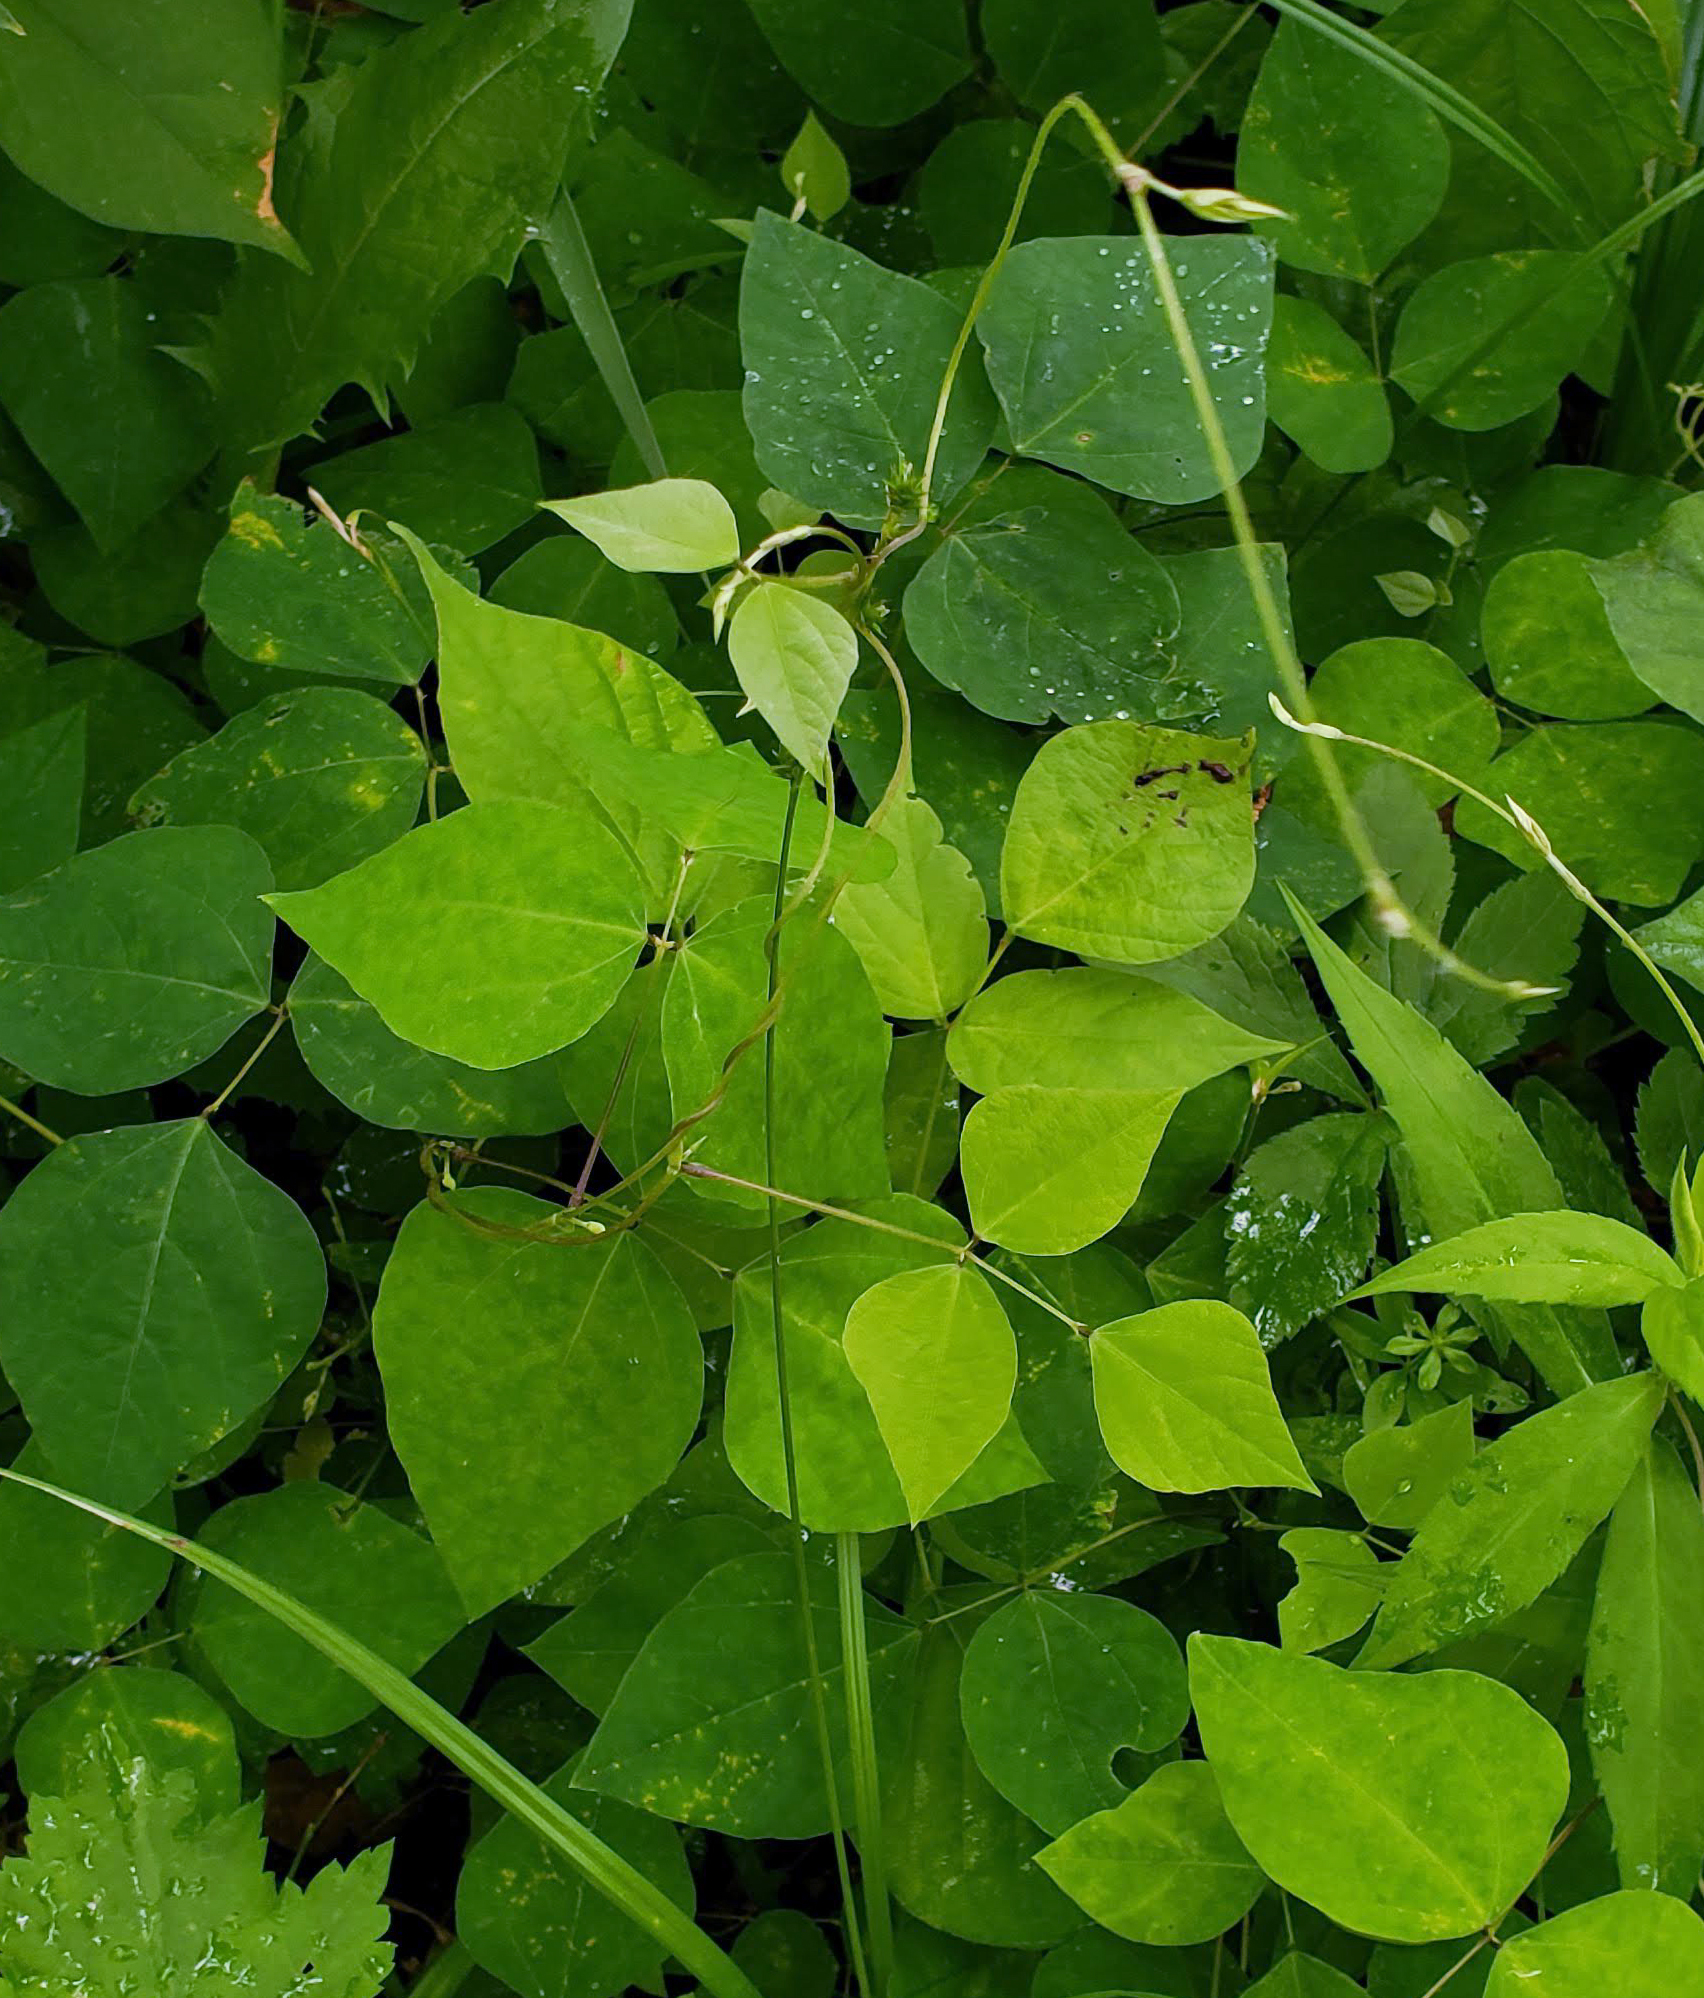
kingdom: Plantae
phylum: Tracheophyta
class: Magnoliopsida
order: Fabales
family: Fabaceae
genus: Amphicarpaea
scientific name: Amphicarpaea bracteata
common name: American hog peanut
